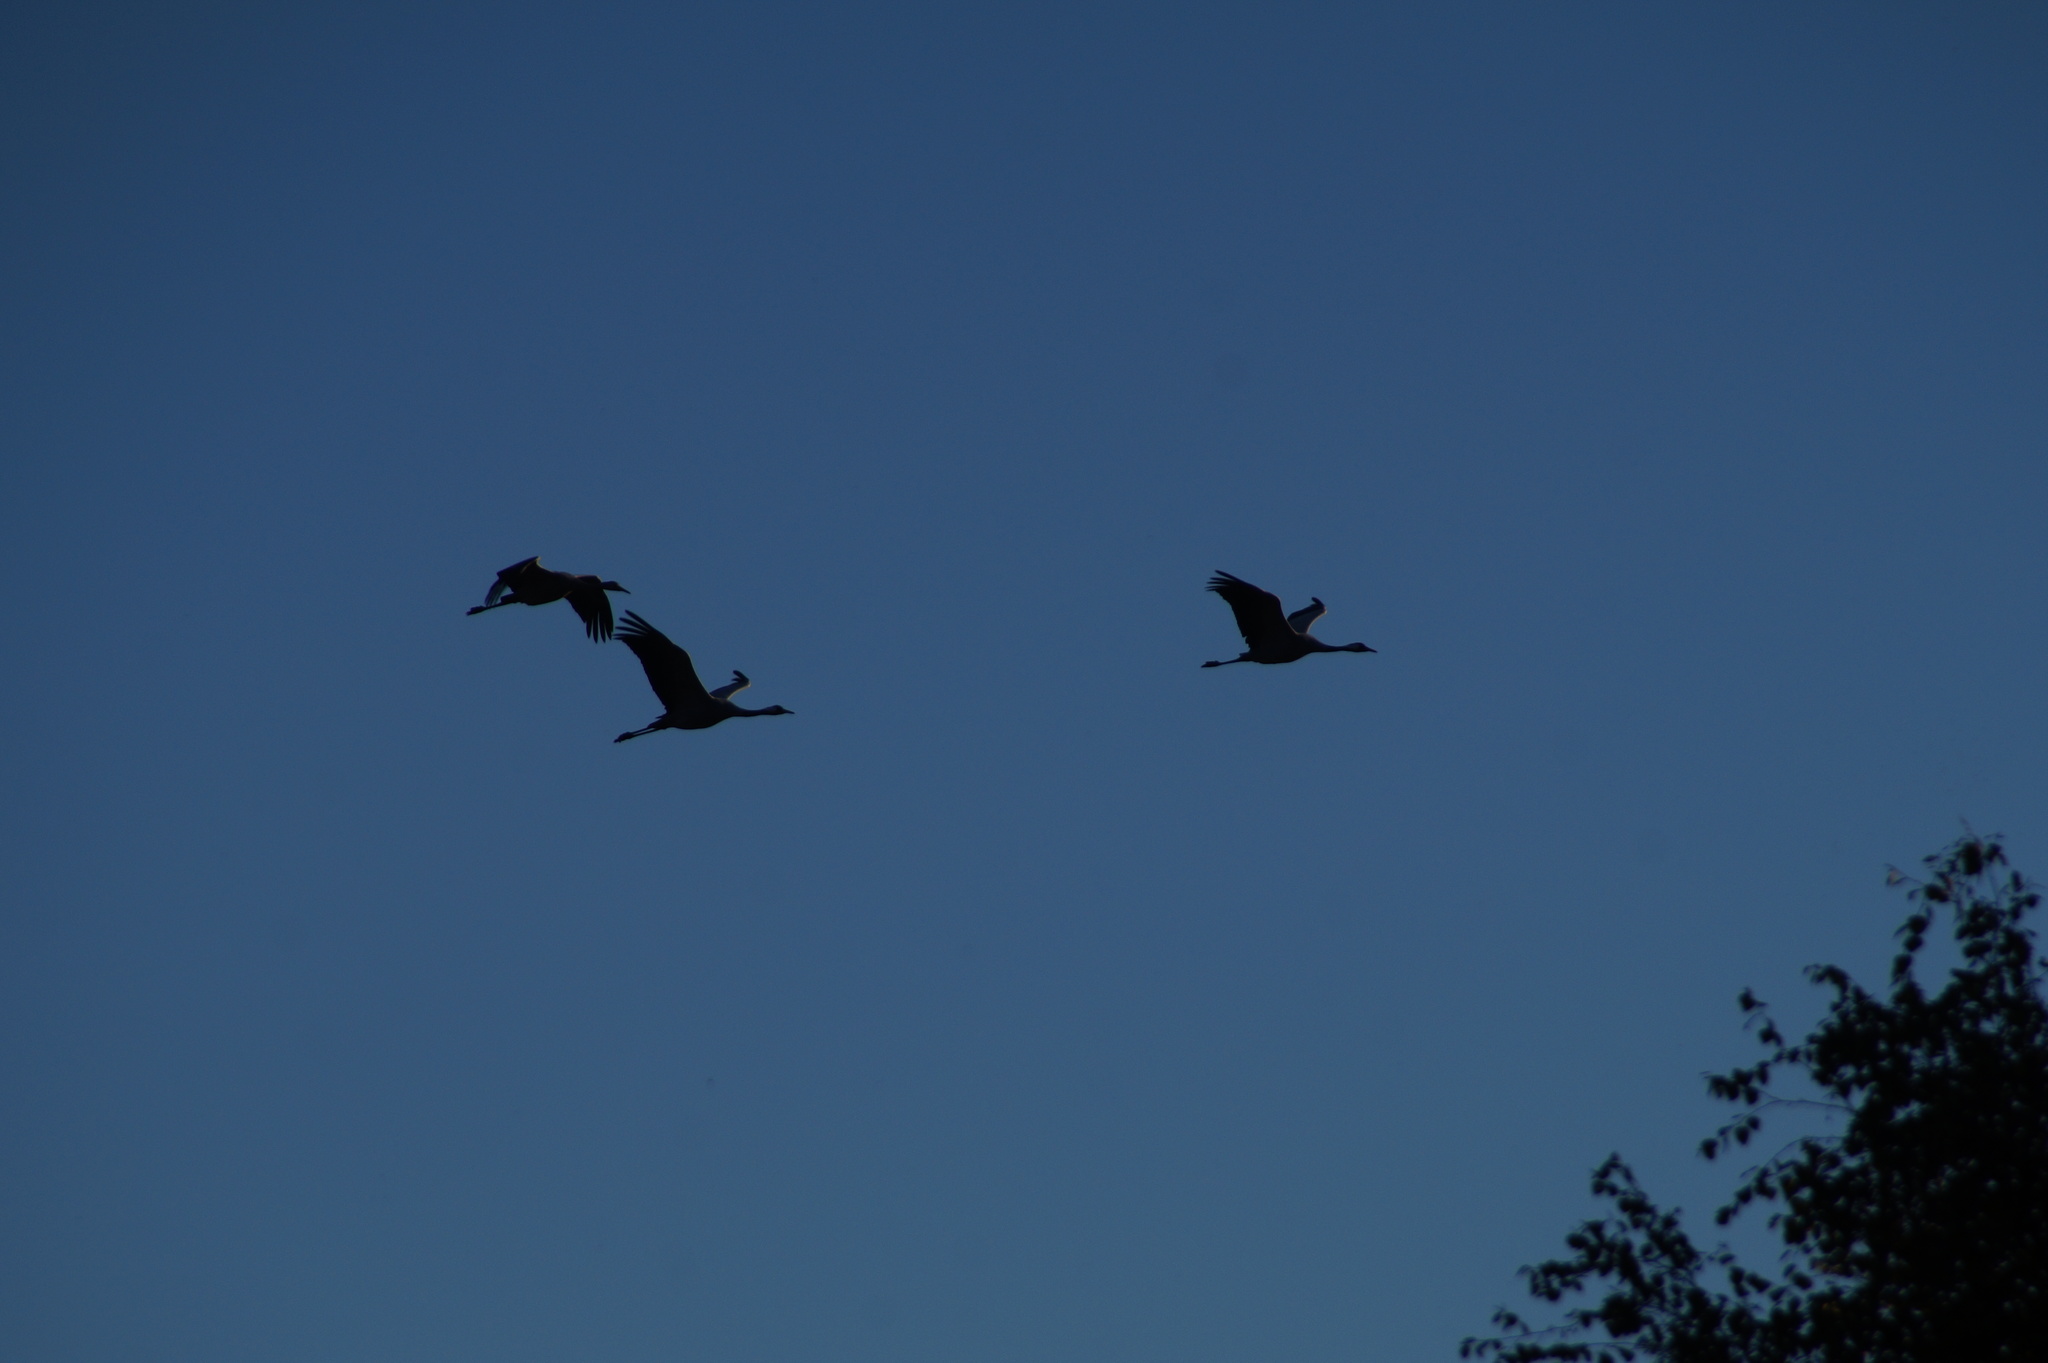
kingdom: Animalia
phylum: Chordata
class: Aves
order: Gruiformes
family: Gruidae
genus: Grus
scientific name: Grus grus
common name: Common crane
